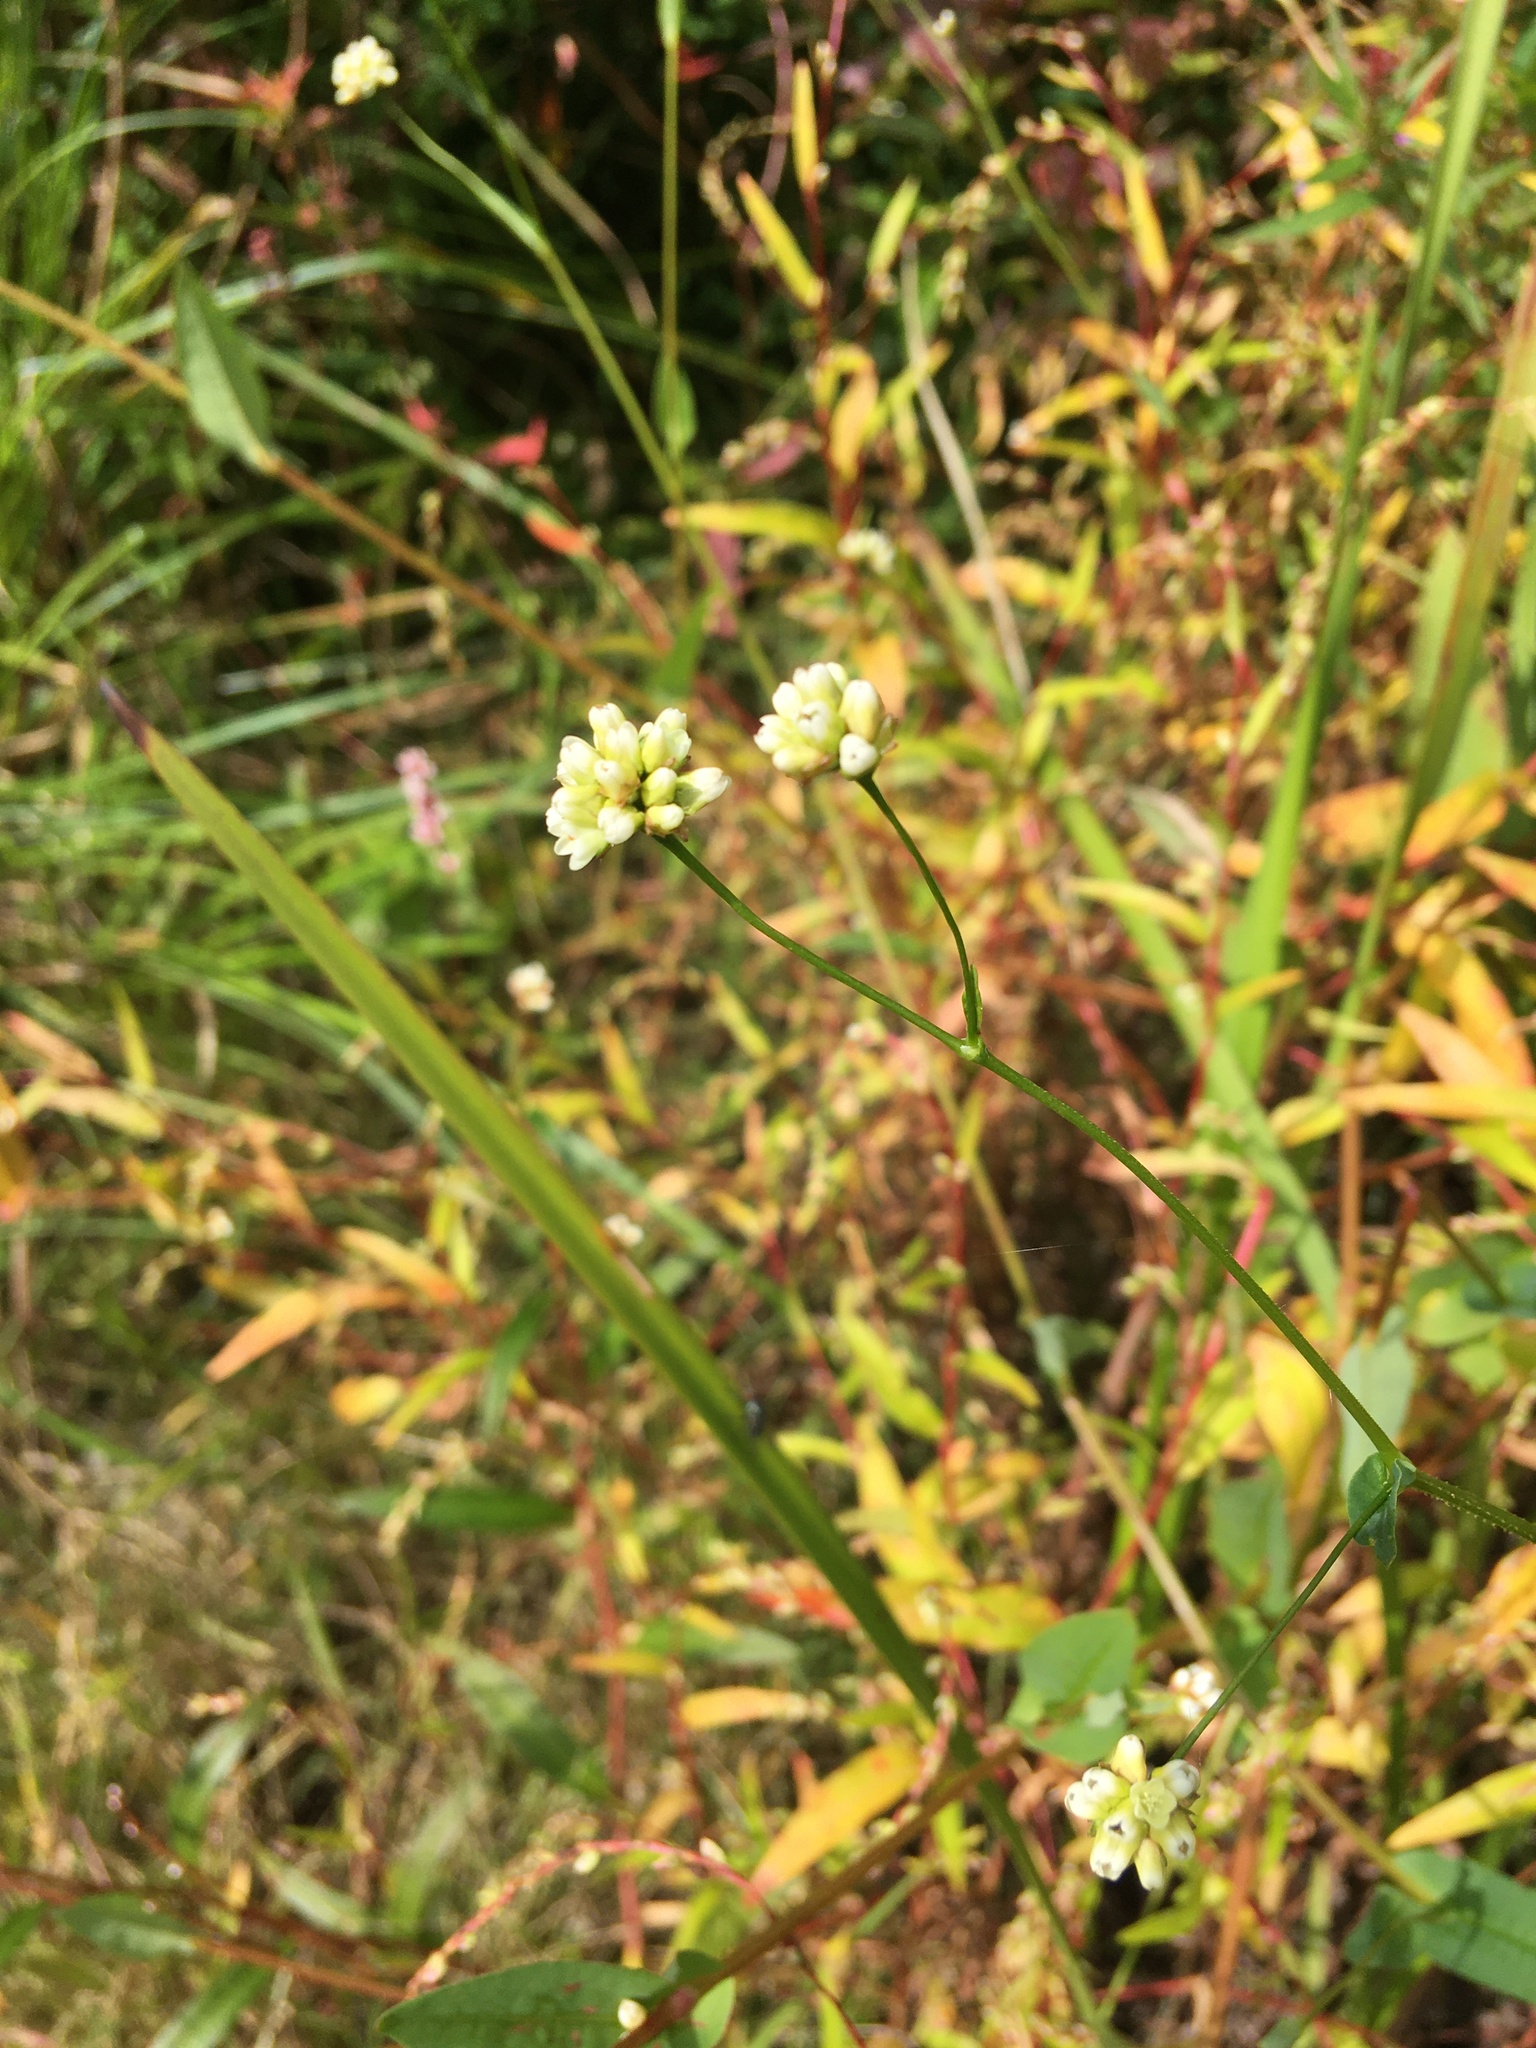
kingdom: Plantae
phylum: Tracheophyta
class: Magnoliopsida
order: Caryophyllales
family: Polygonaceae
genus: Persicaria
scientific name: Persicaria sagittata
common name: American tearthumb
